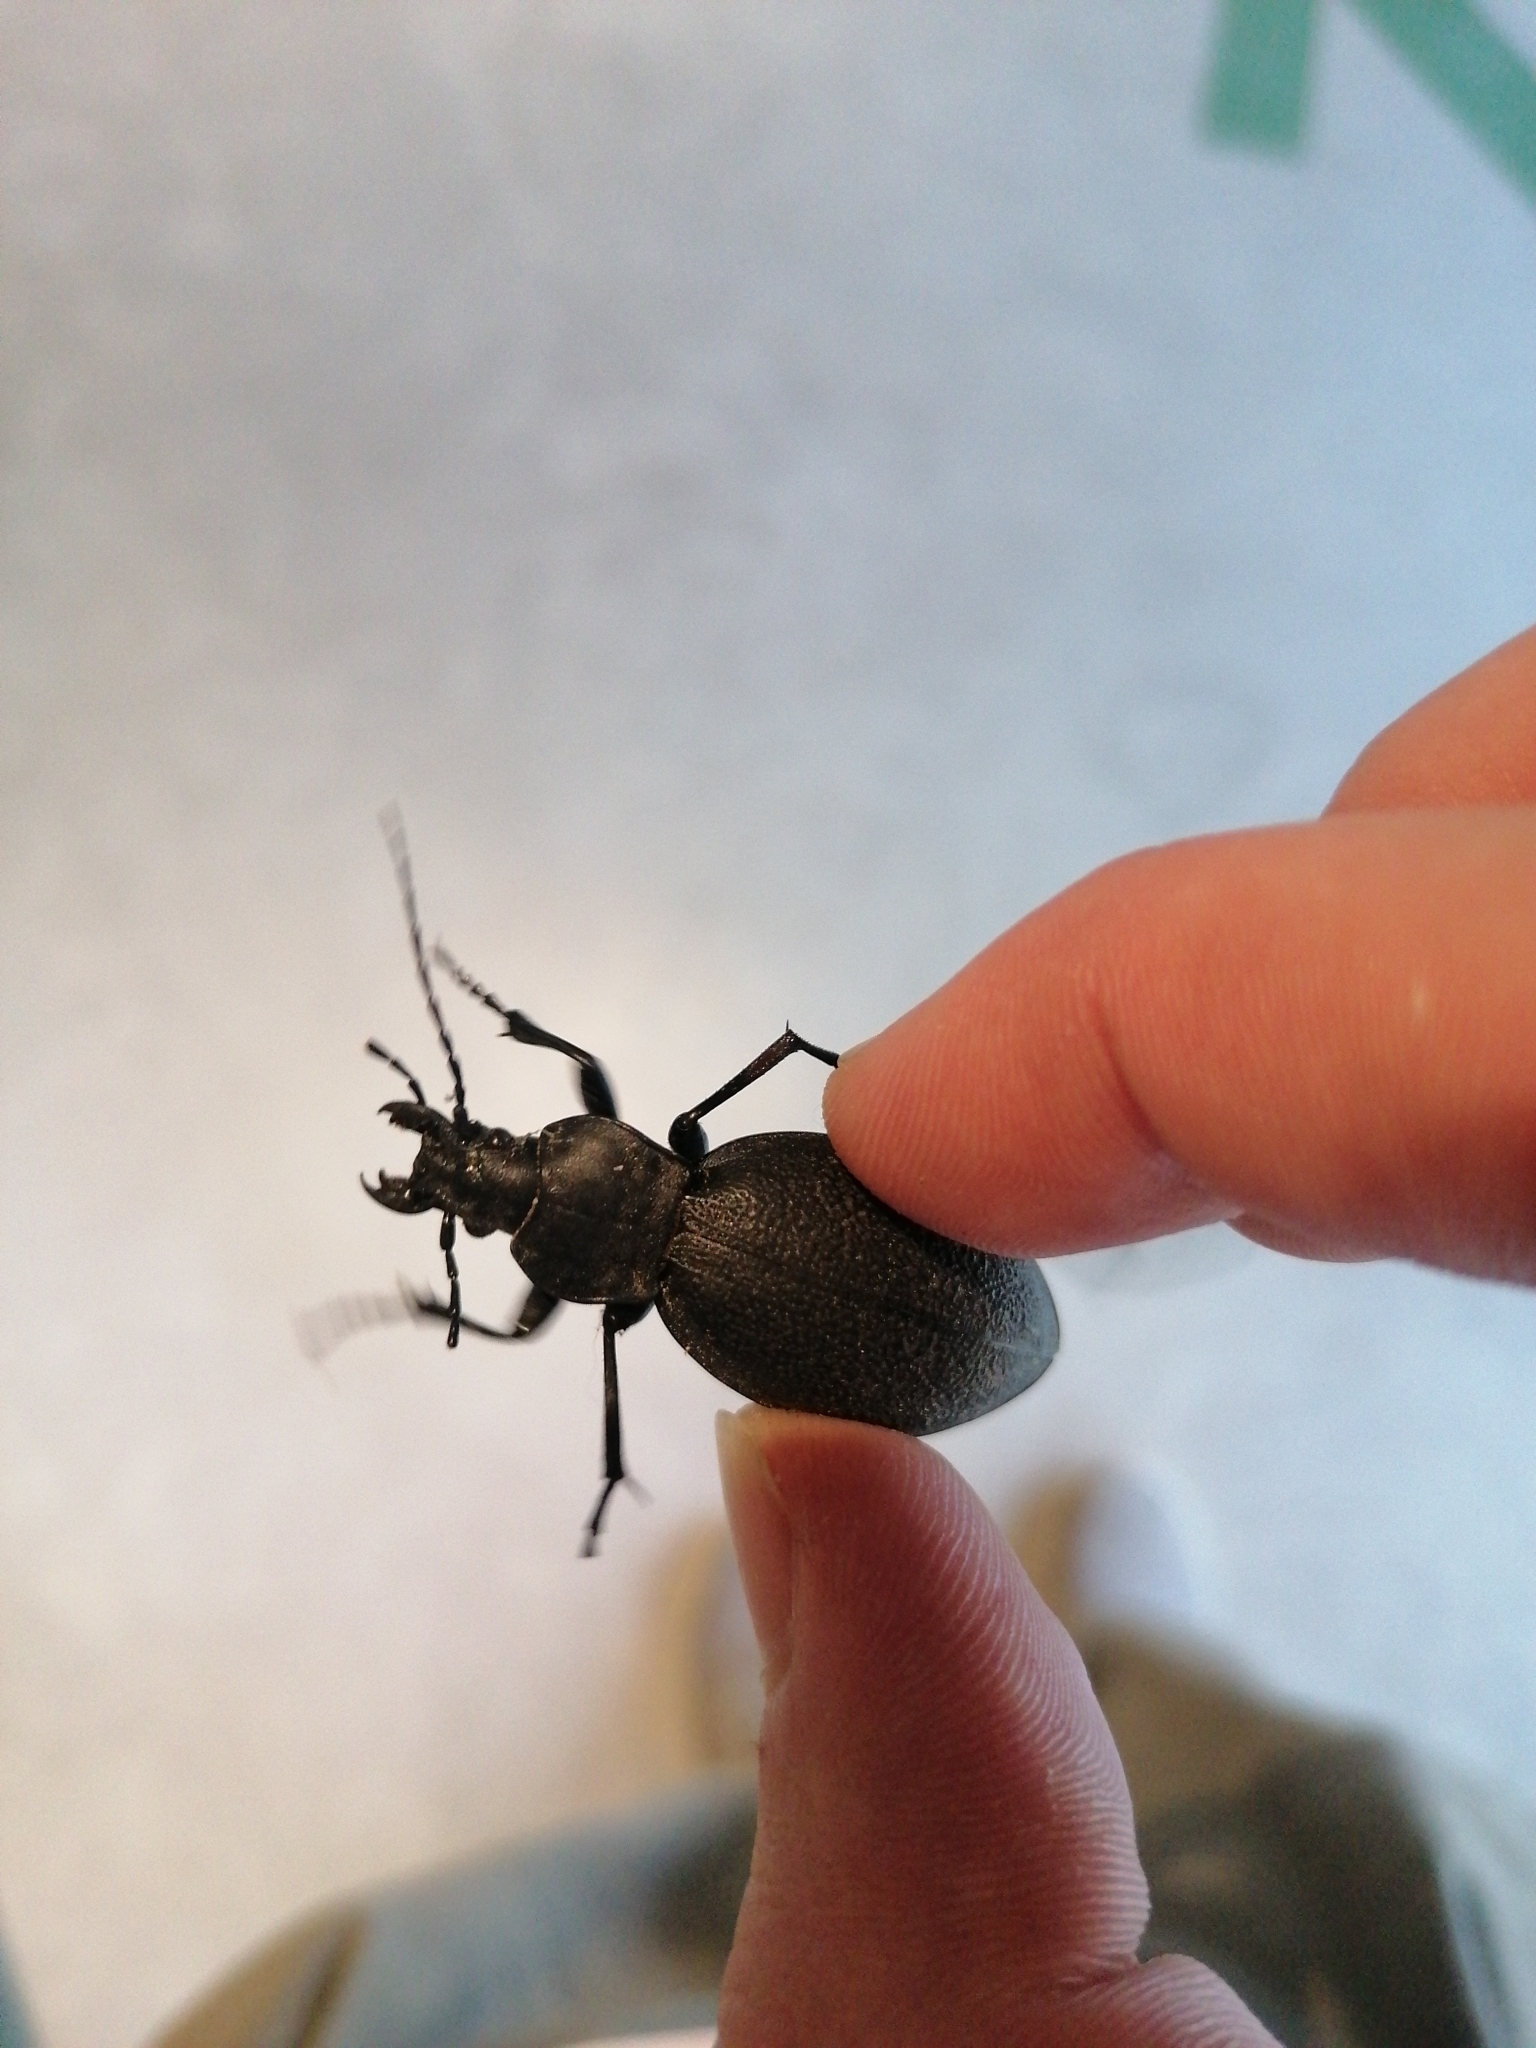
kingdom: Animalia
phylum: Arthropoda
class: Insecta
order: Coleoptera
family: Carabidae
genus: Carabus
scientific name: Carabus coriaceus
